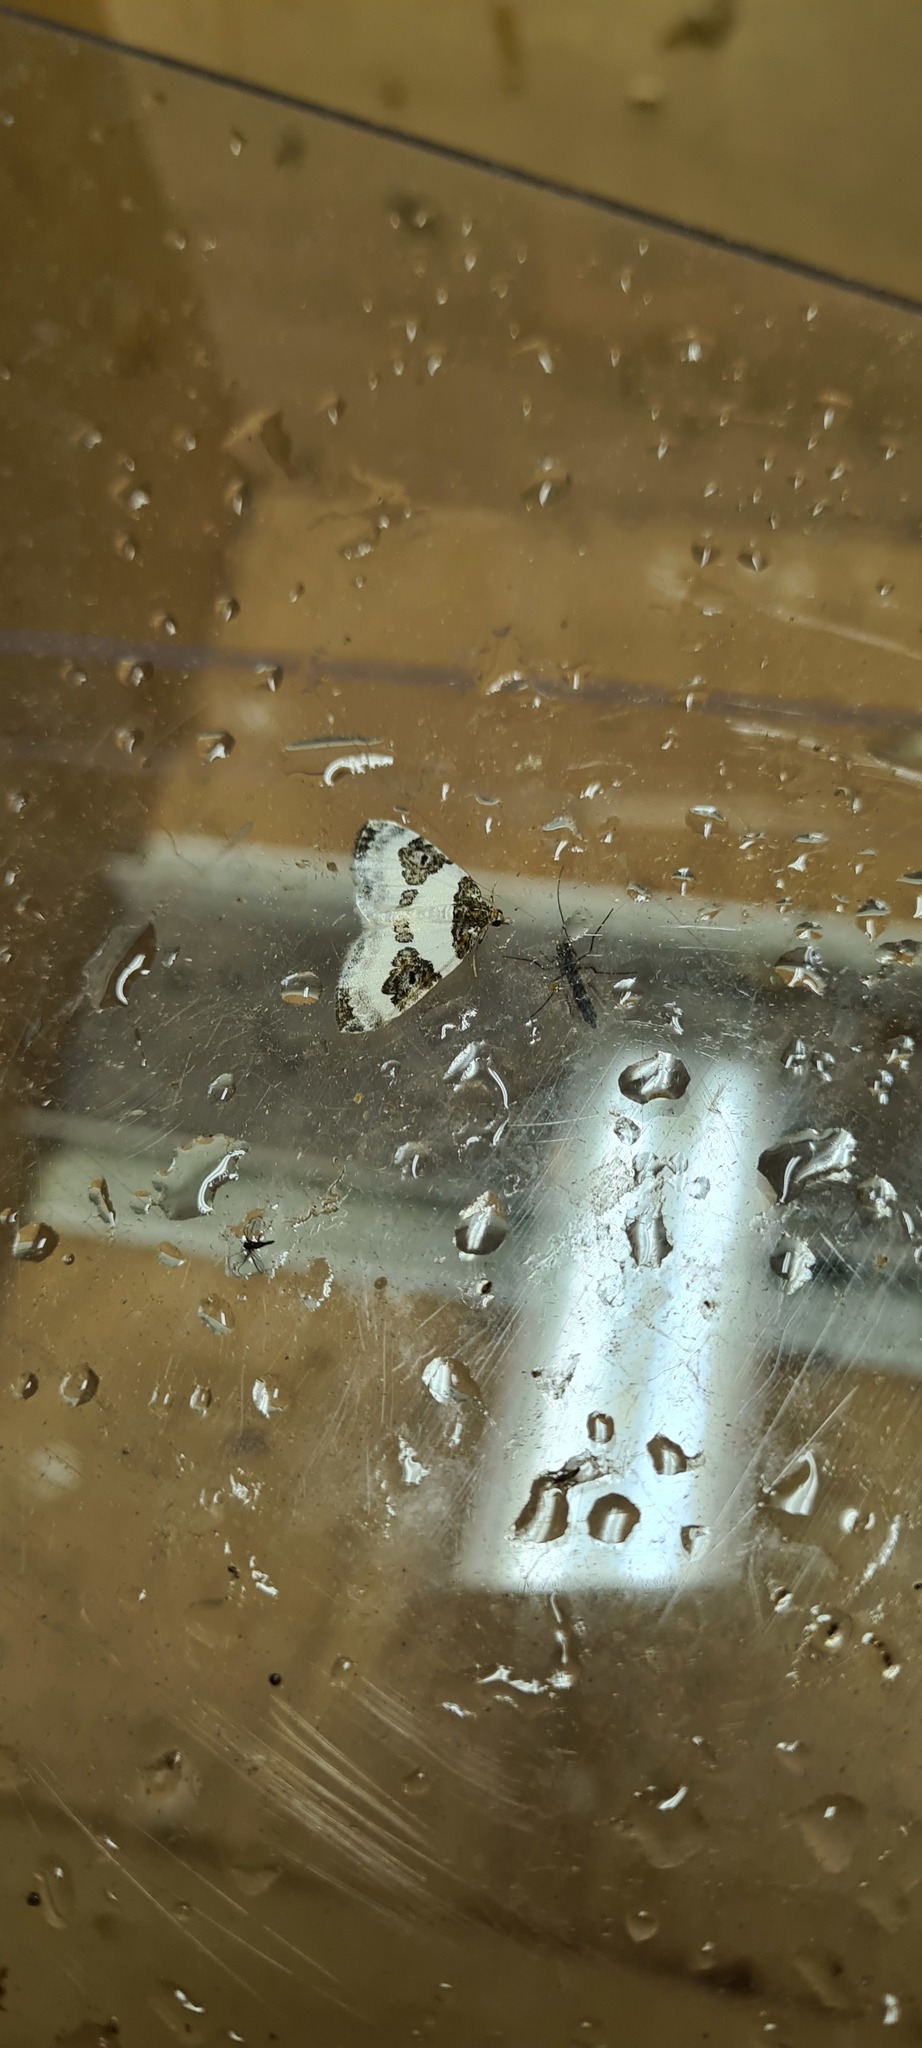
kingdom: Animalia
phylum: Arthropoda
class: Insecta
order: Lepidoptera
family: Geometridae
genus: Plemyria
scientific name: Plemyria rubiginata
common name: Blue-bordered carpet
